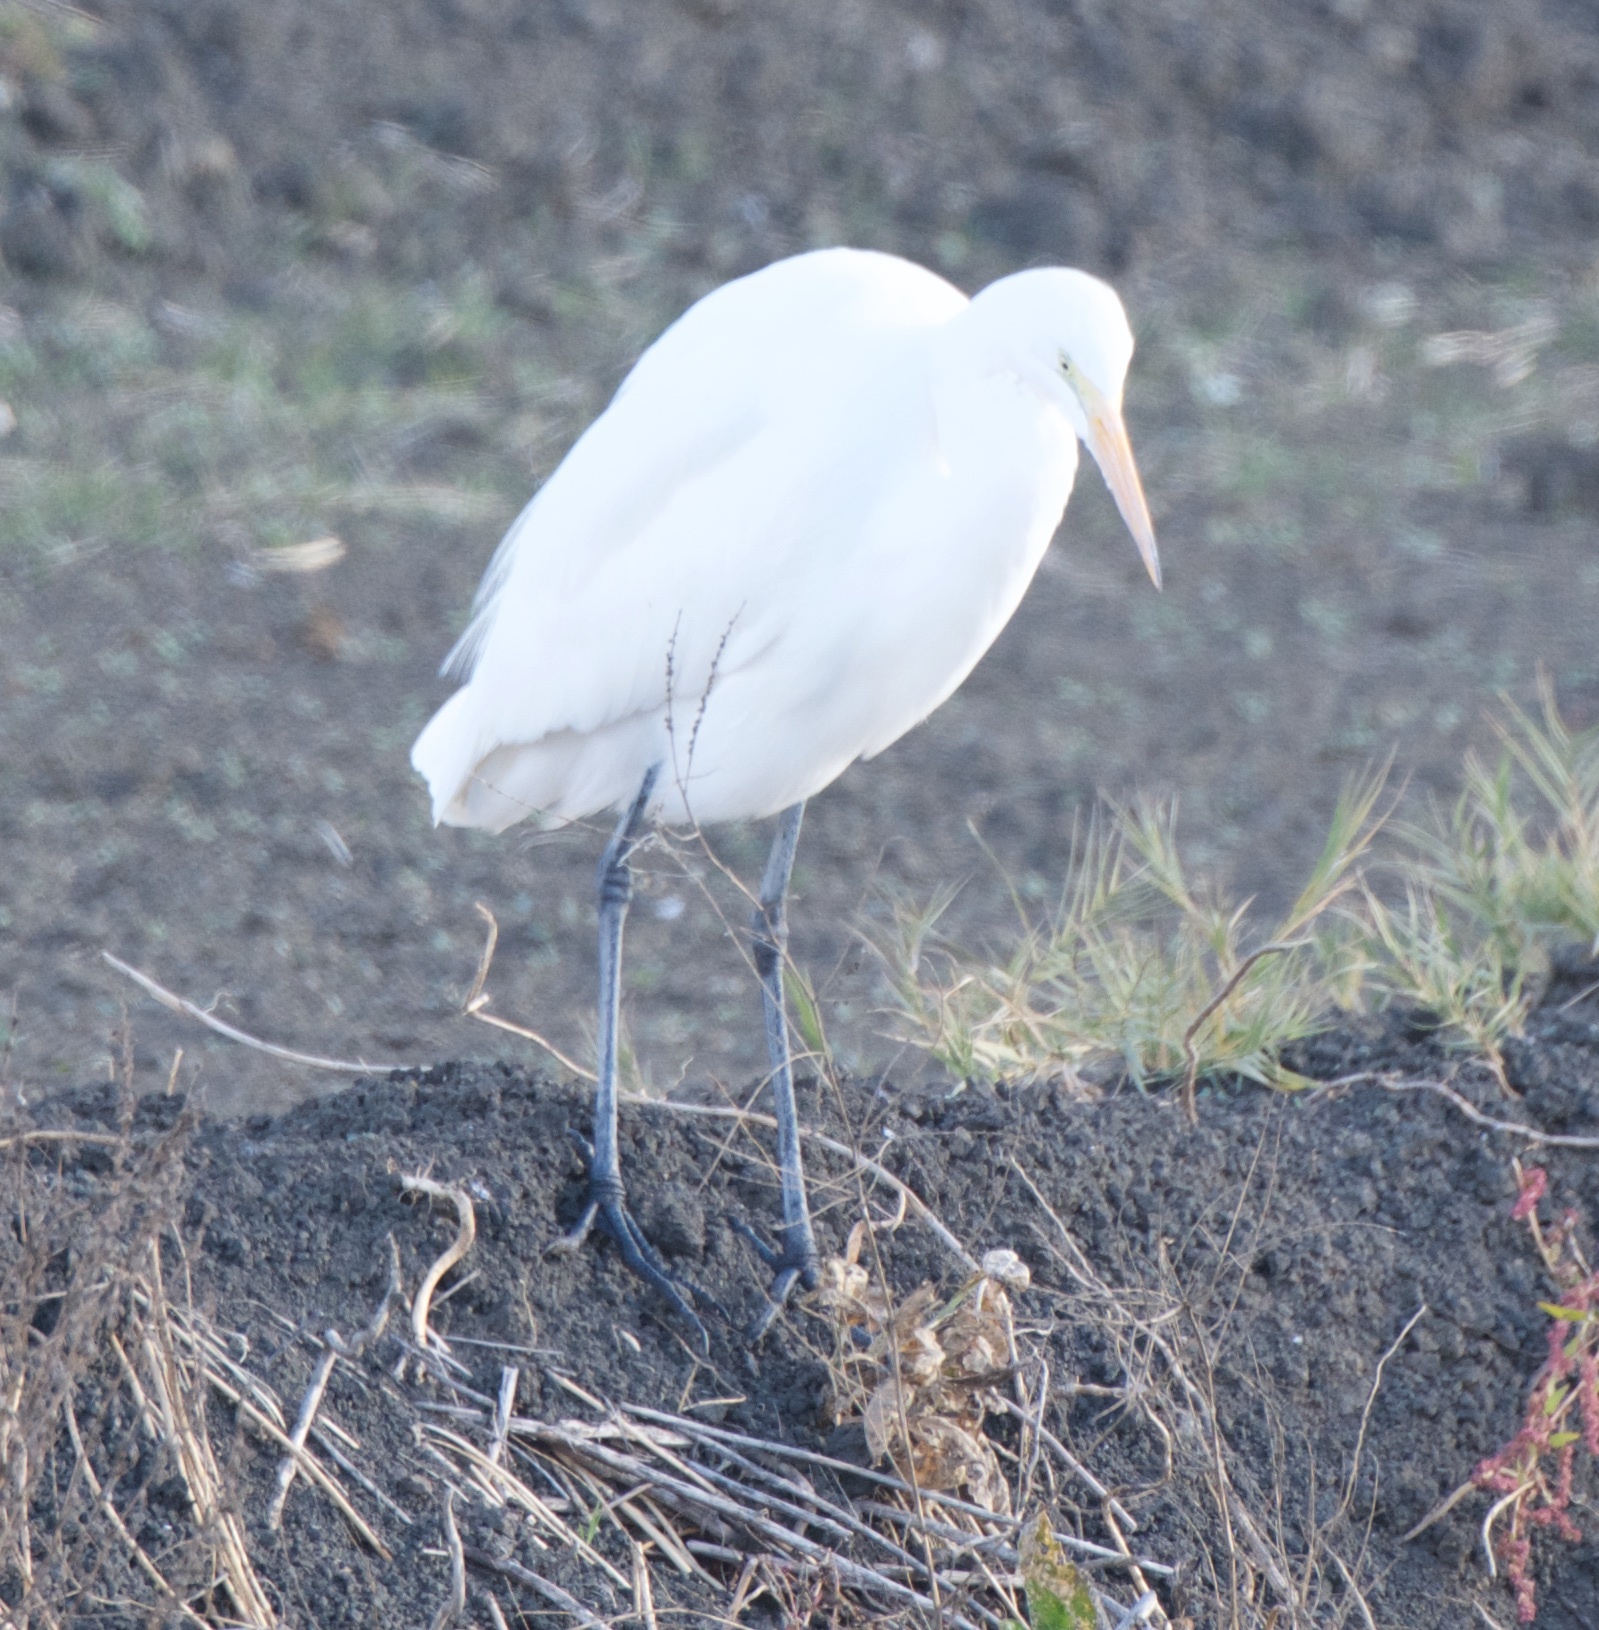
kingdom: Animalia
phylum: Chordata
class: Aves
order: Pelecaniformes
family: Ardeidae
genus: Ardea
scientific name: Ardea alba
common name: Great egret
